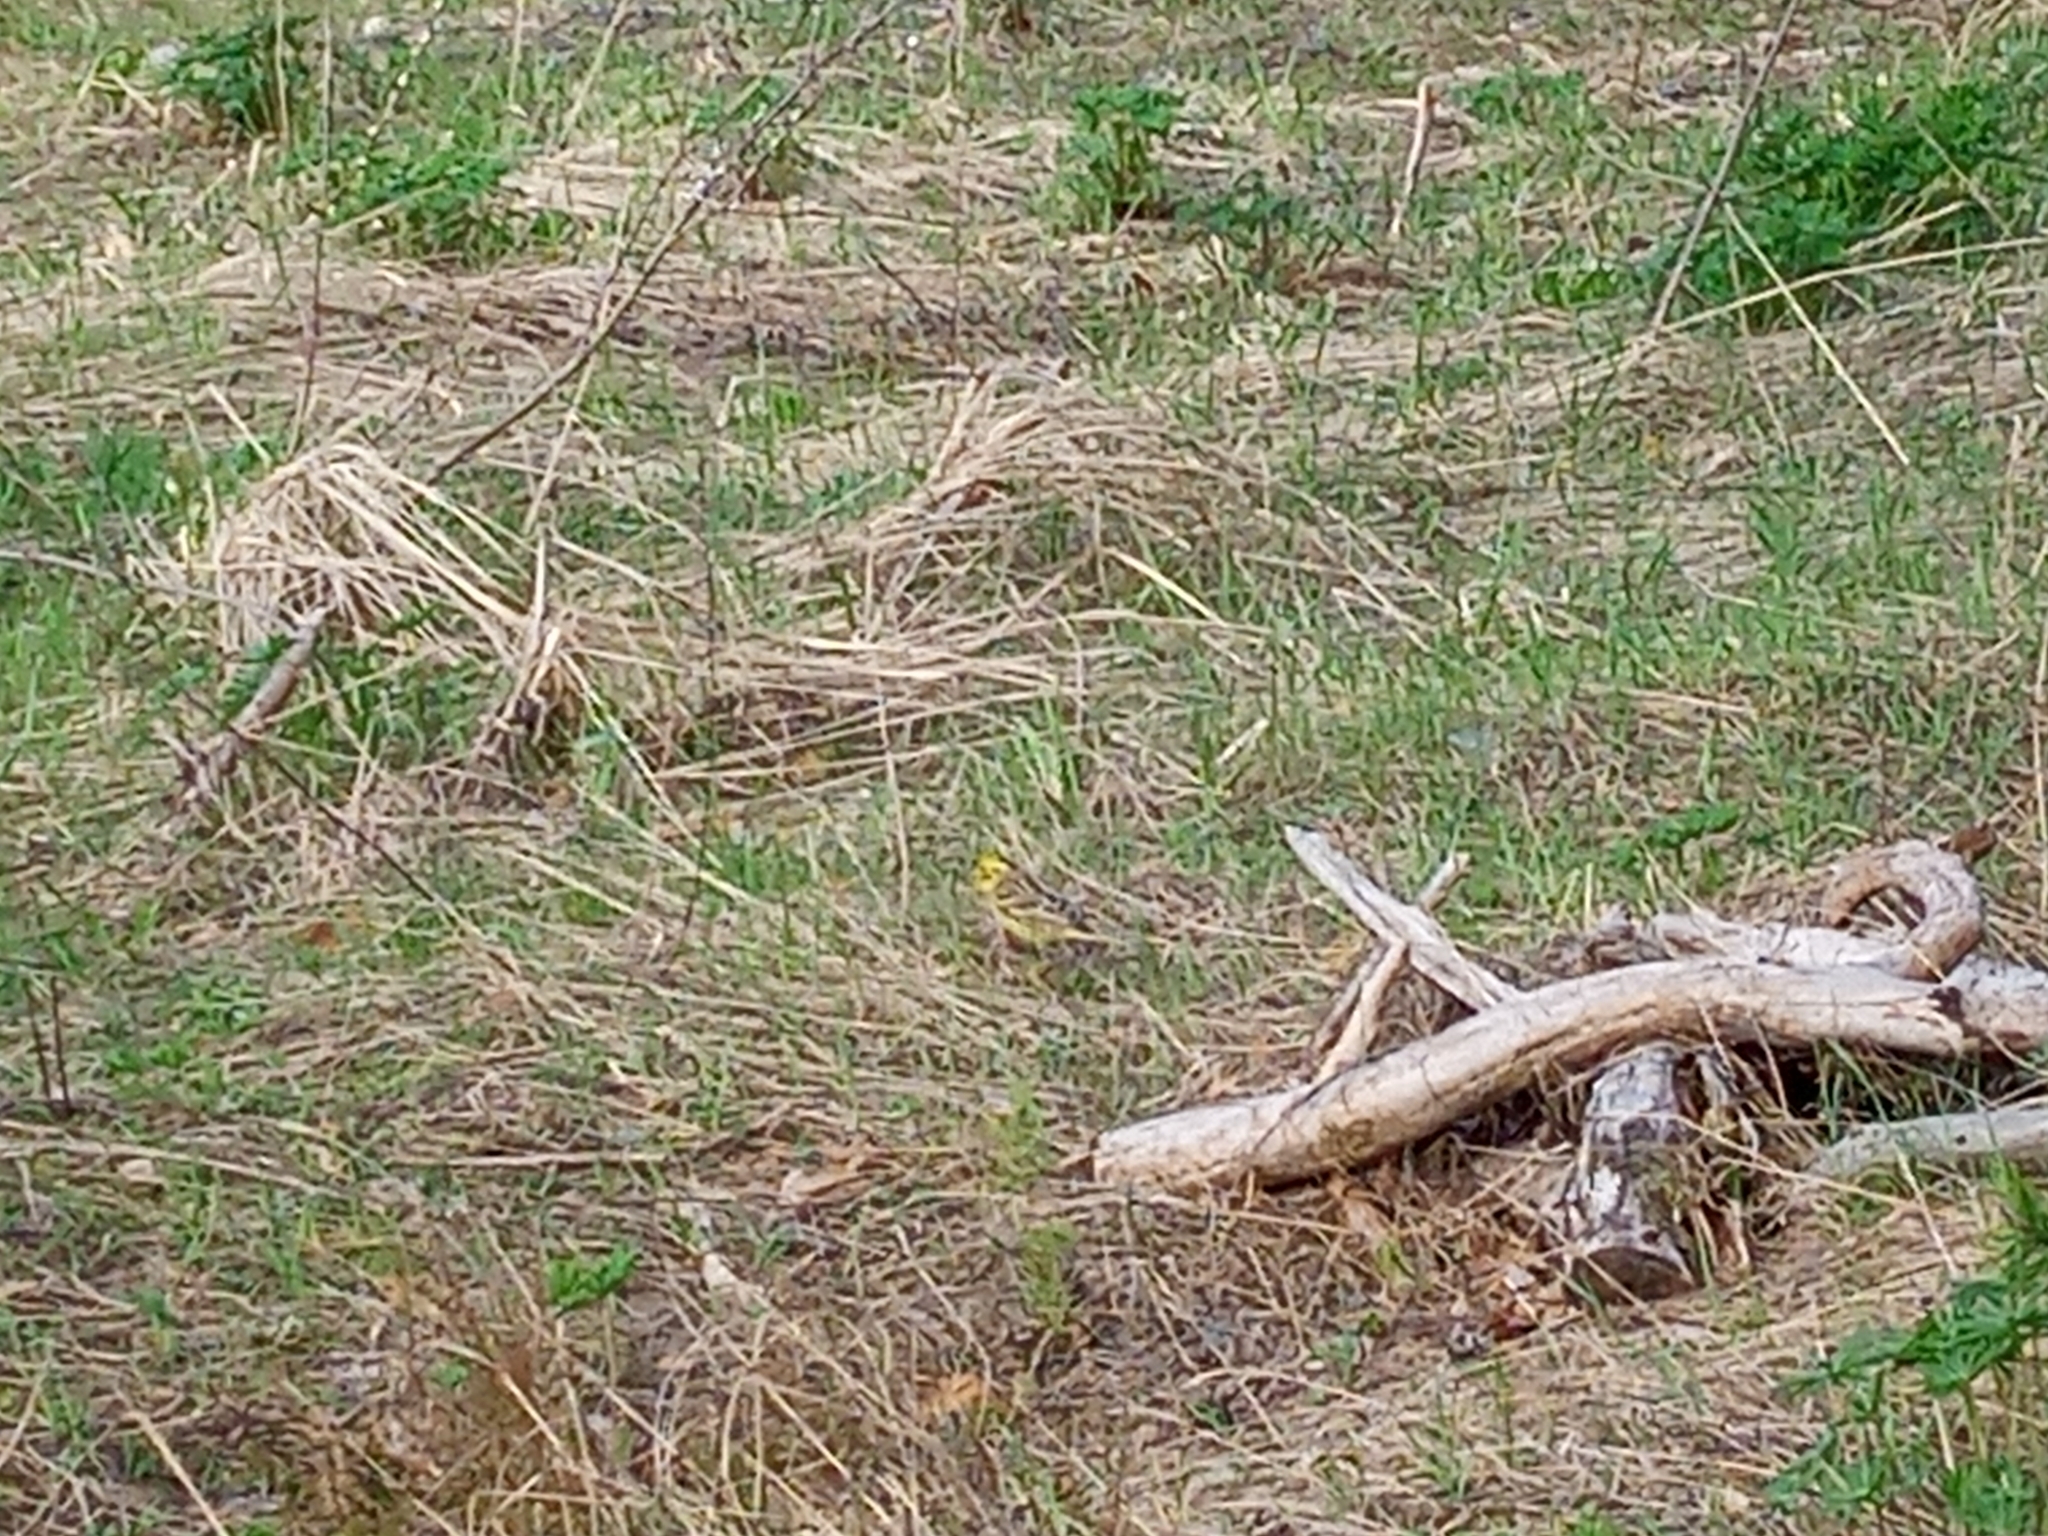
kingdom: Animalia
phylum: Chordata
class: Aves
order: Passeriformes
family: Emberizidae
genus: Emberiza
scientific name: Emberiza citrinella
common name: Yellowhammer
